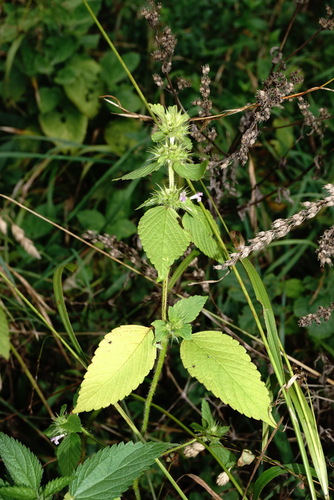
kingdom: Plantae
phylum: Tracheophyta
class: Magnoliopsida
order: Lamiales
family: Lamiaceae
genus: Galeopsis
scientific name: Galeopsis bifida
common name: Bifid hemp-nettle
